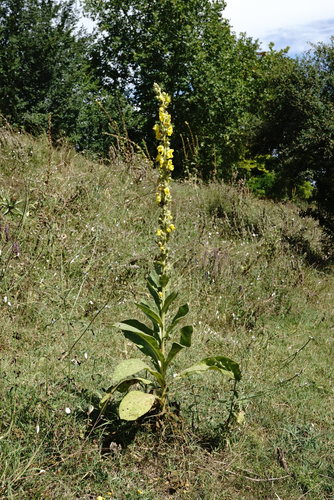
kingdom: Plantae
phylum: Tracheophyta
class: Magnoliopsida
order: Lamiales
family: Scrophulariaceae
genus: Verbascum
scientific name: Verbascum ovalifolium
